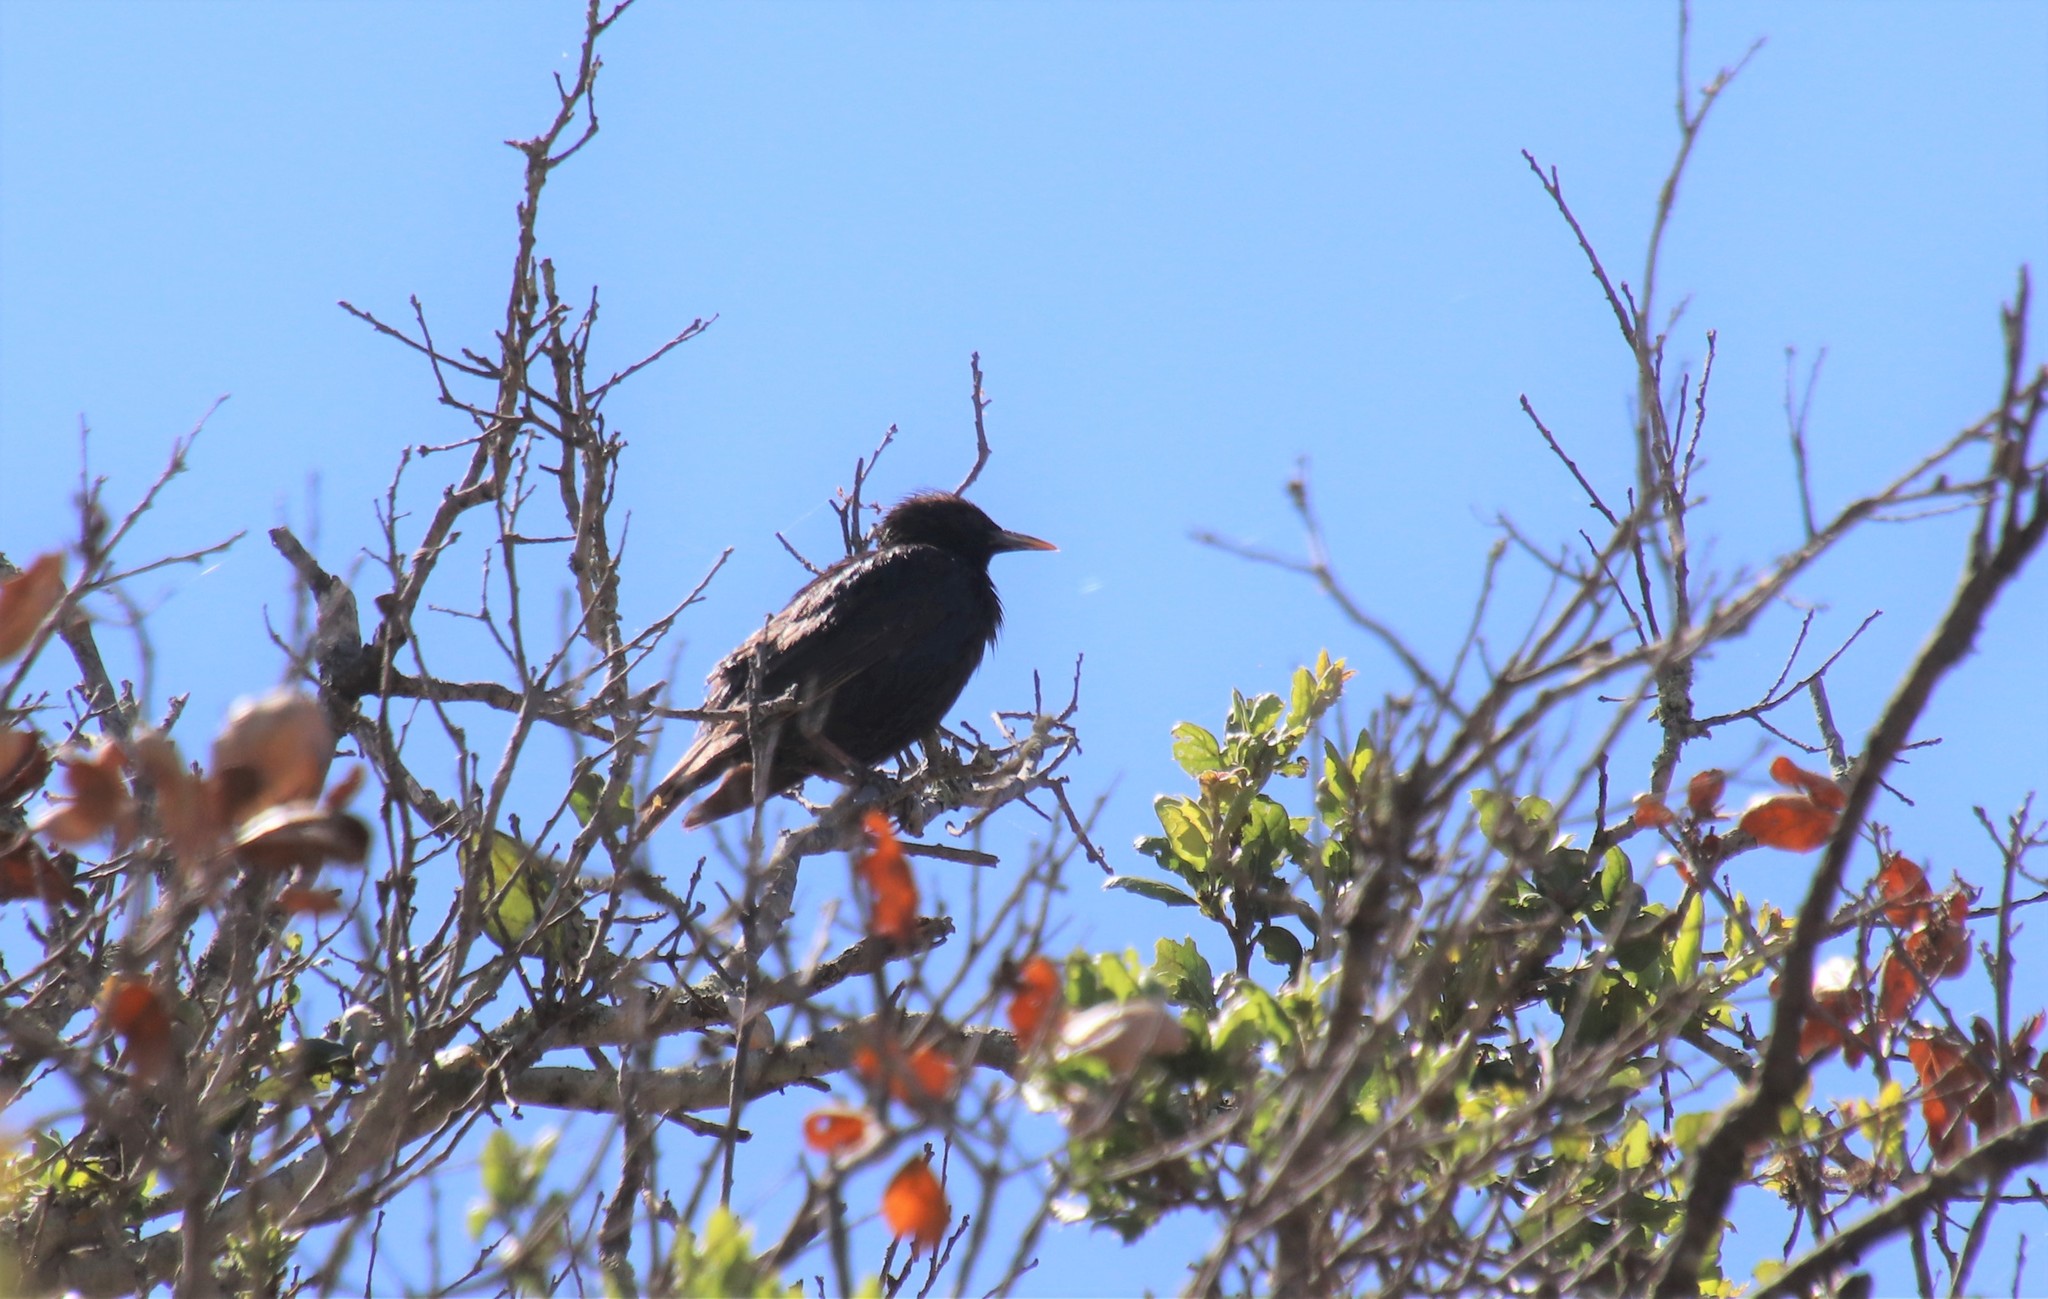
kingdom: Animalia
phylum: Chordata
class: Aves
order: Passeriformes
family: Sturnidae
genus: Sturnus
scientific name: Sturnus vulgaris
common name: Common starling
